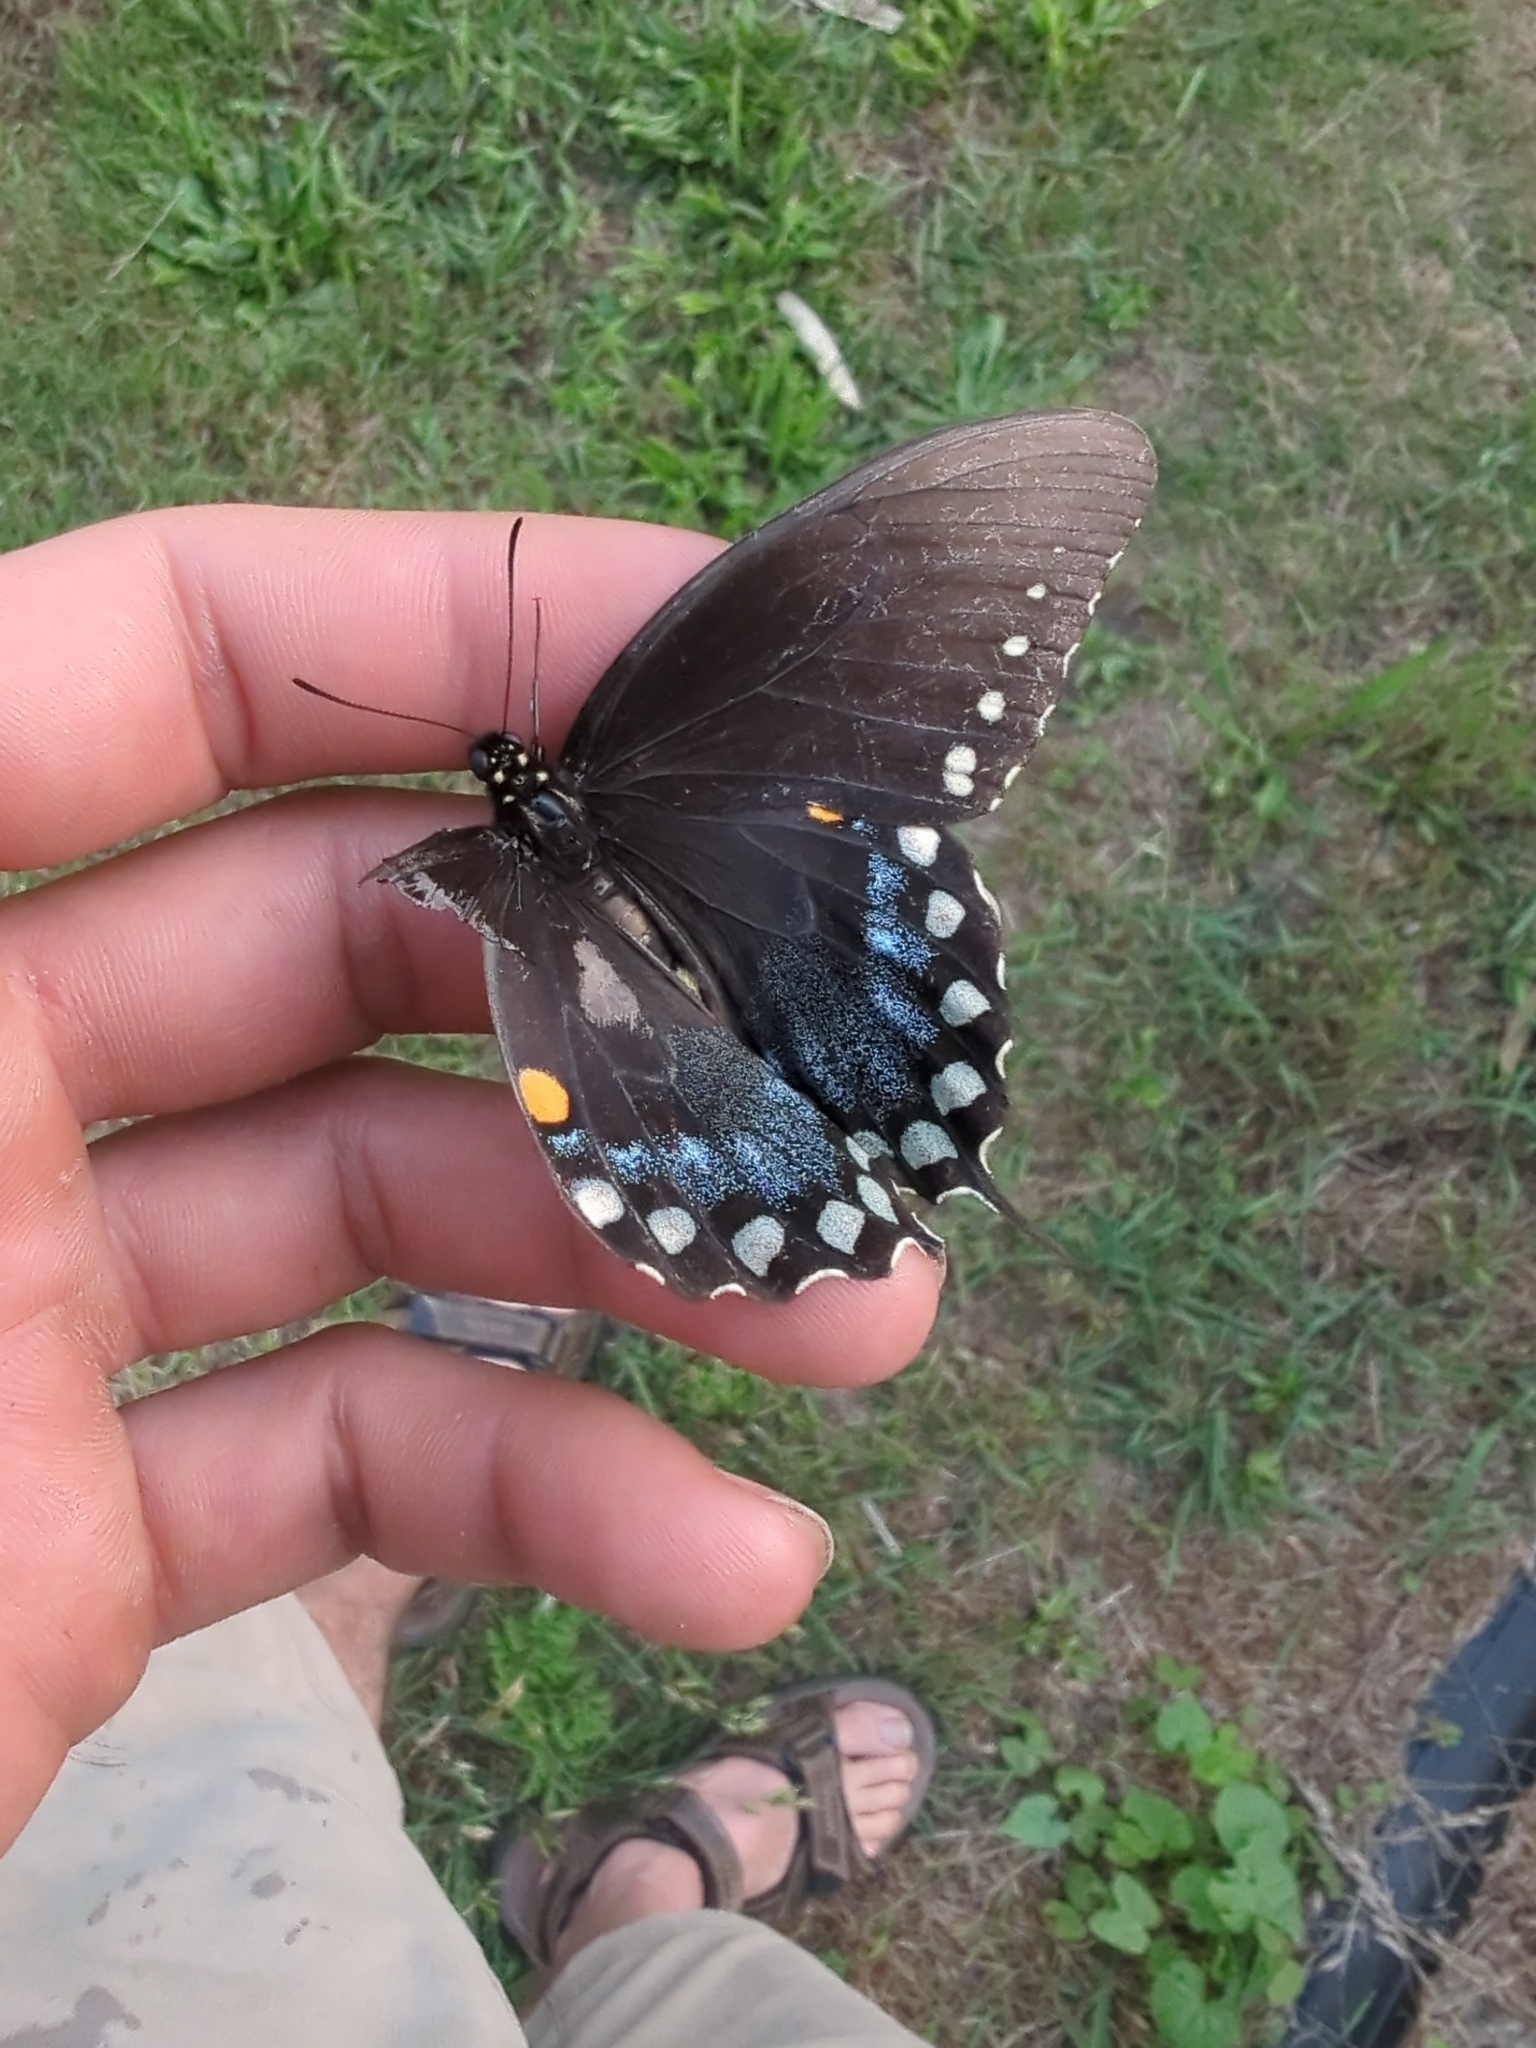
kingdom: Animalia
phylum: Arthropoda
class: Insecta
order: Lepidoptera
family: Papilionidae
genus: Papilio
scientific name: Papilio troilus
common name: Spicebush swallowtail
